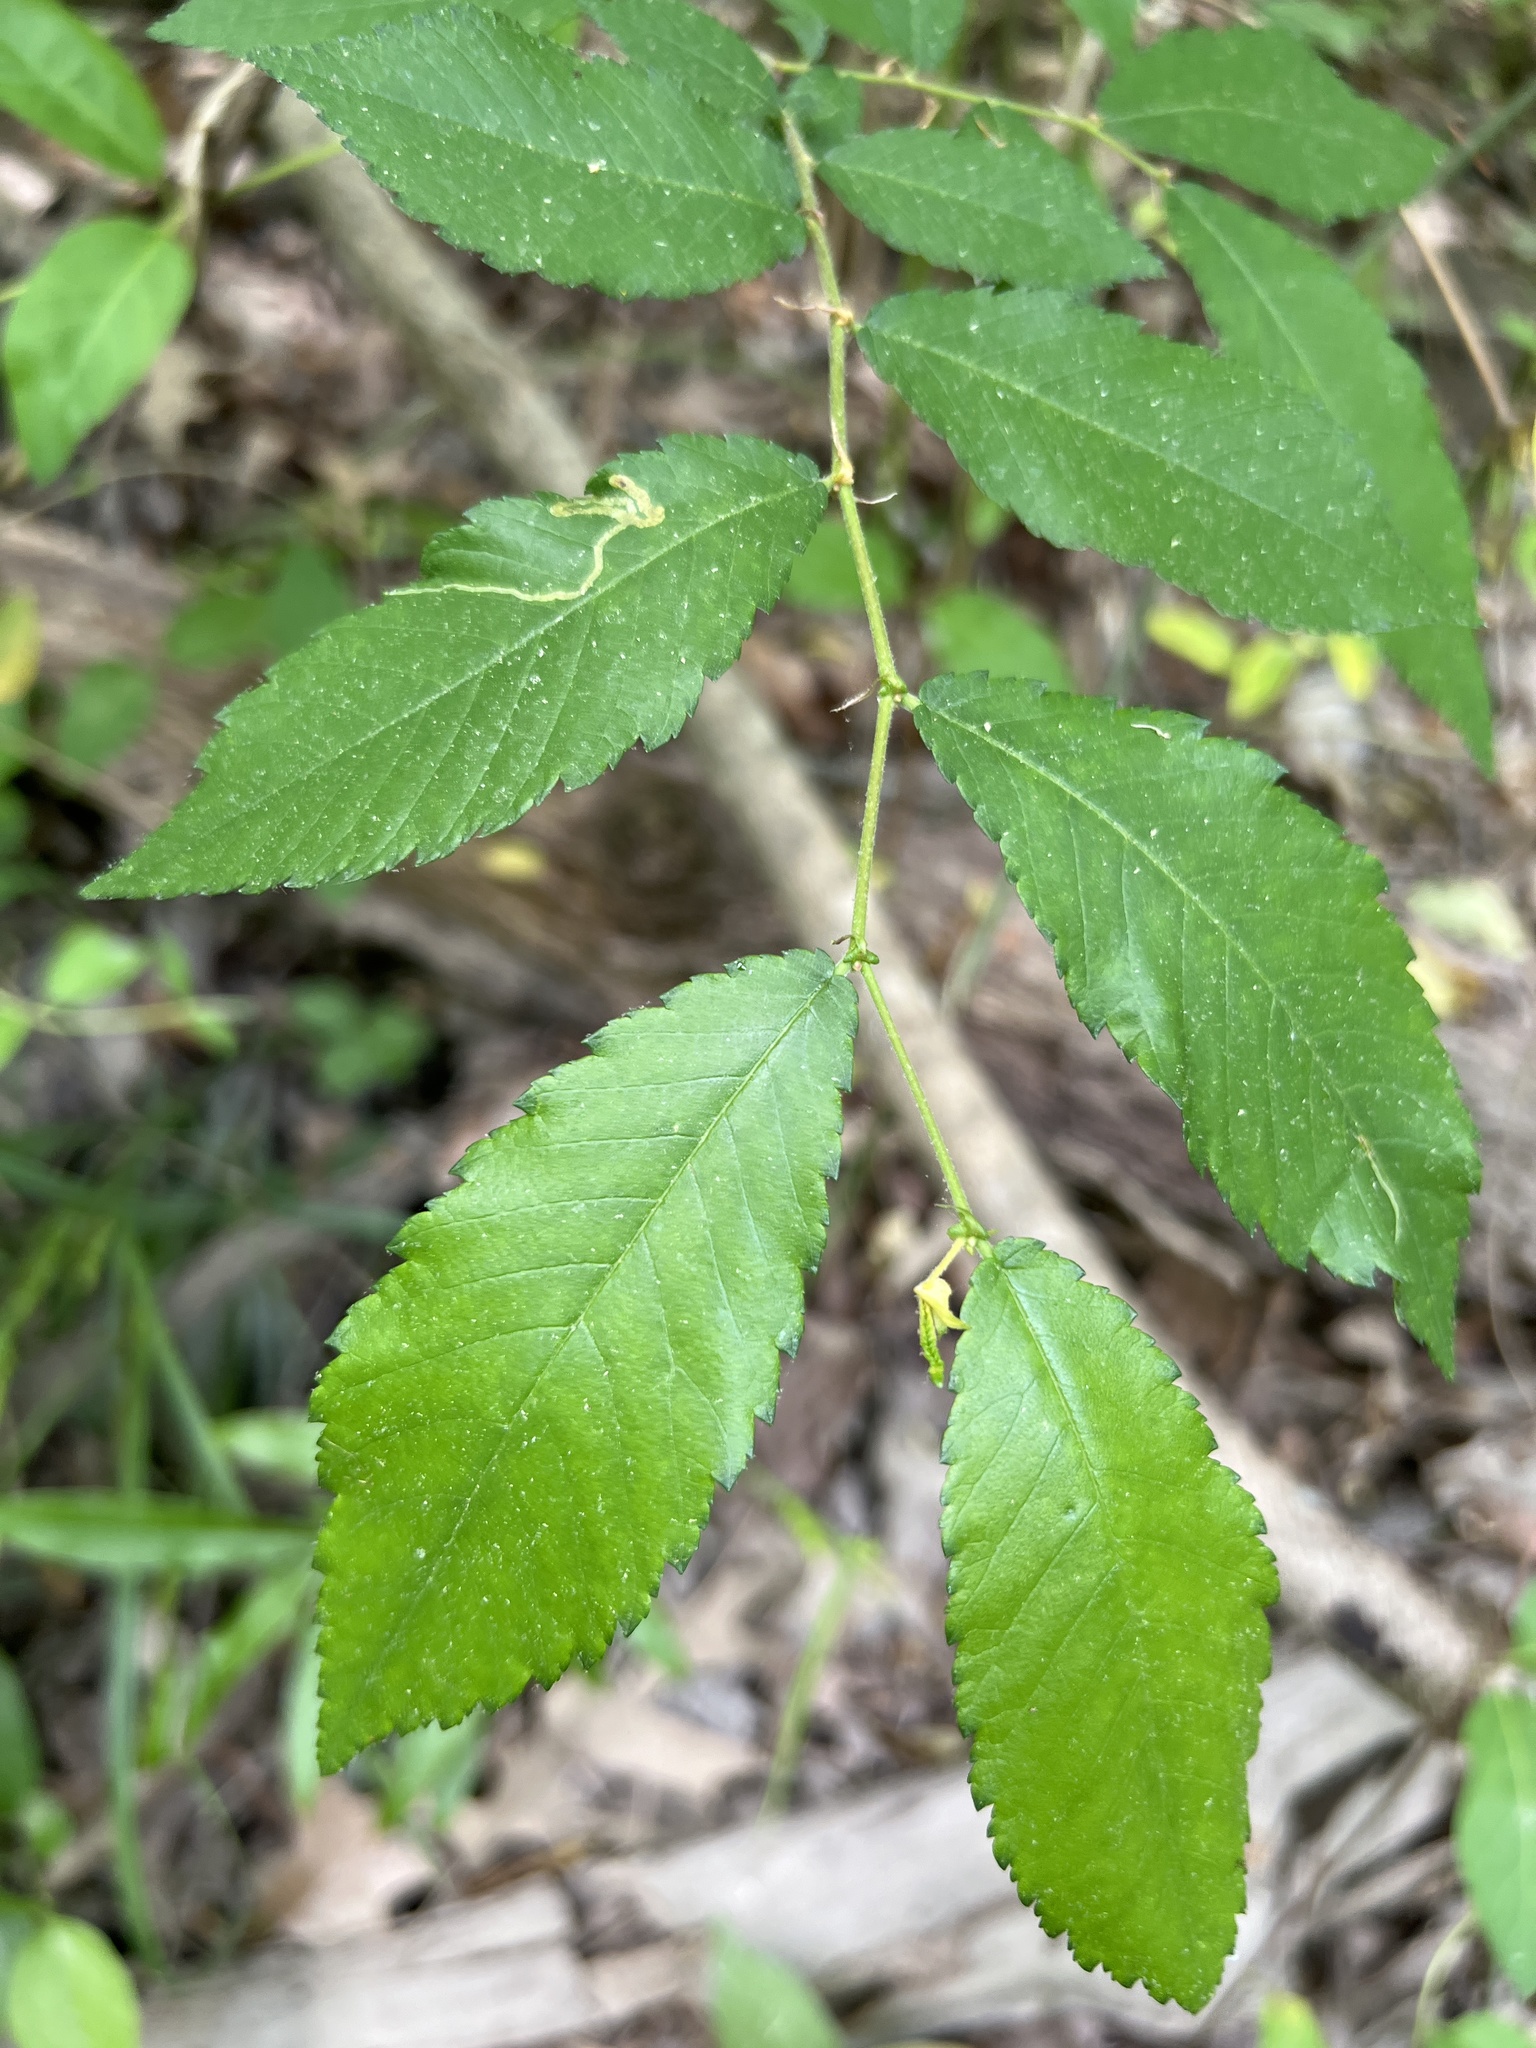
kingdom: Plantae
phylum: Tracheophyta
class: Magnoliopsida
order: Rosales
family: Ulmaceae
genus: Ulmus
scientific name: Ulmus alata
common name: Winged elm
